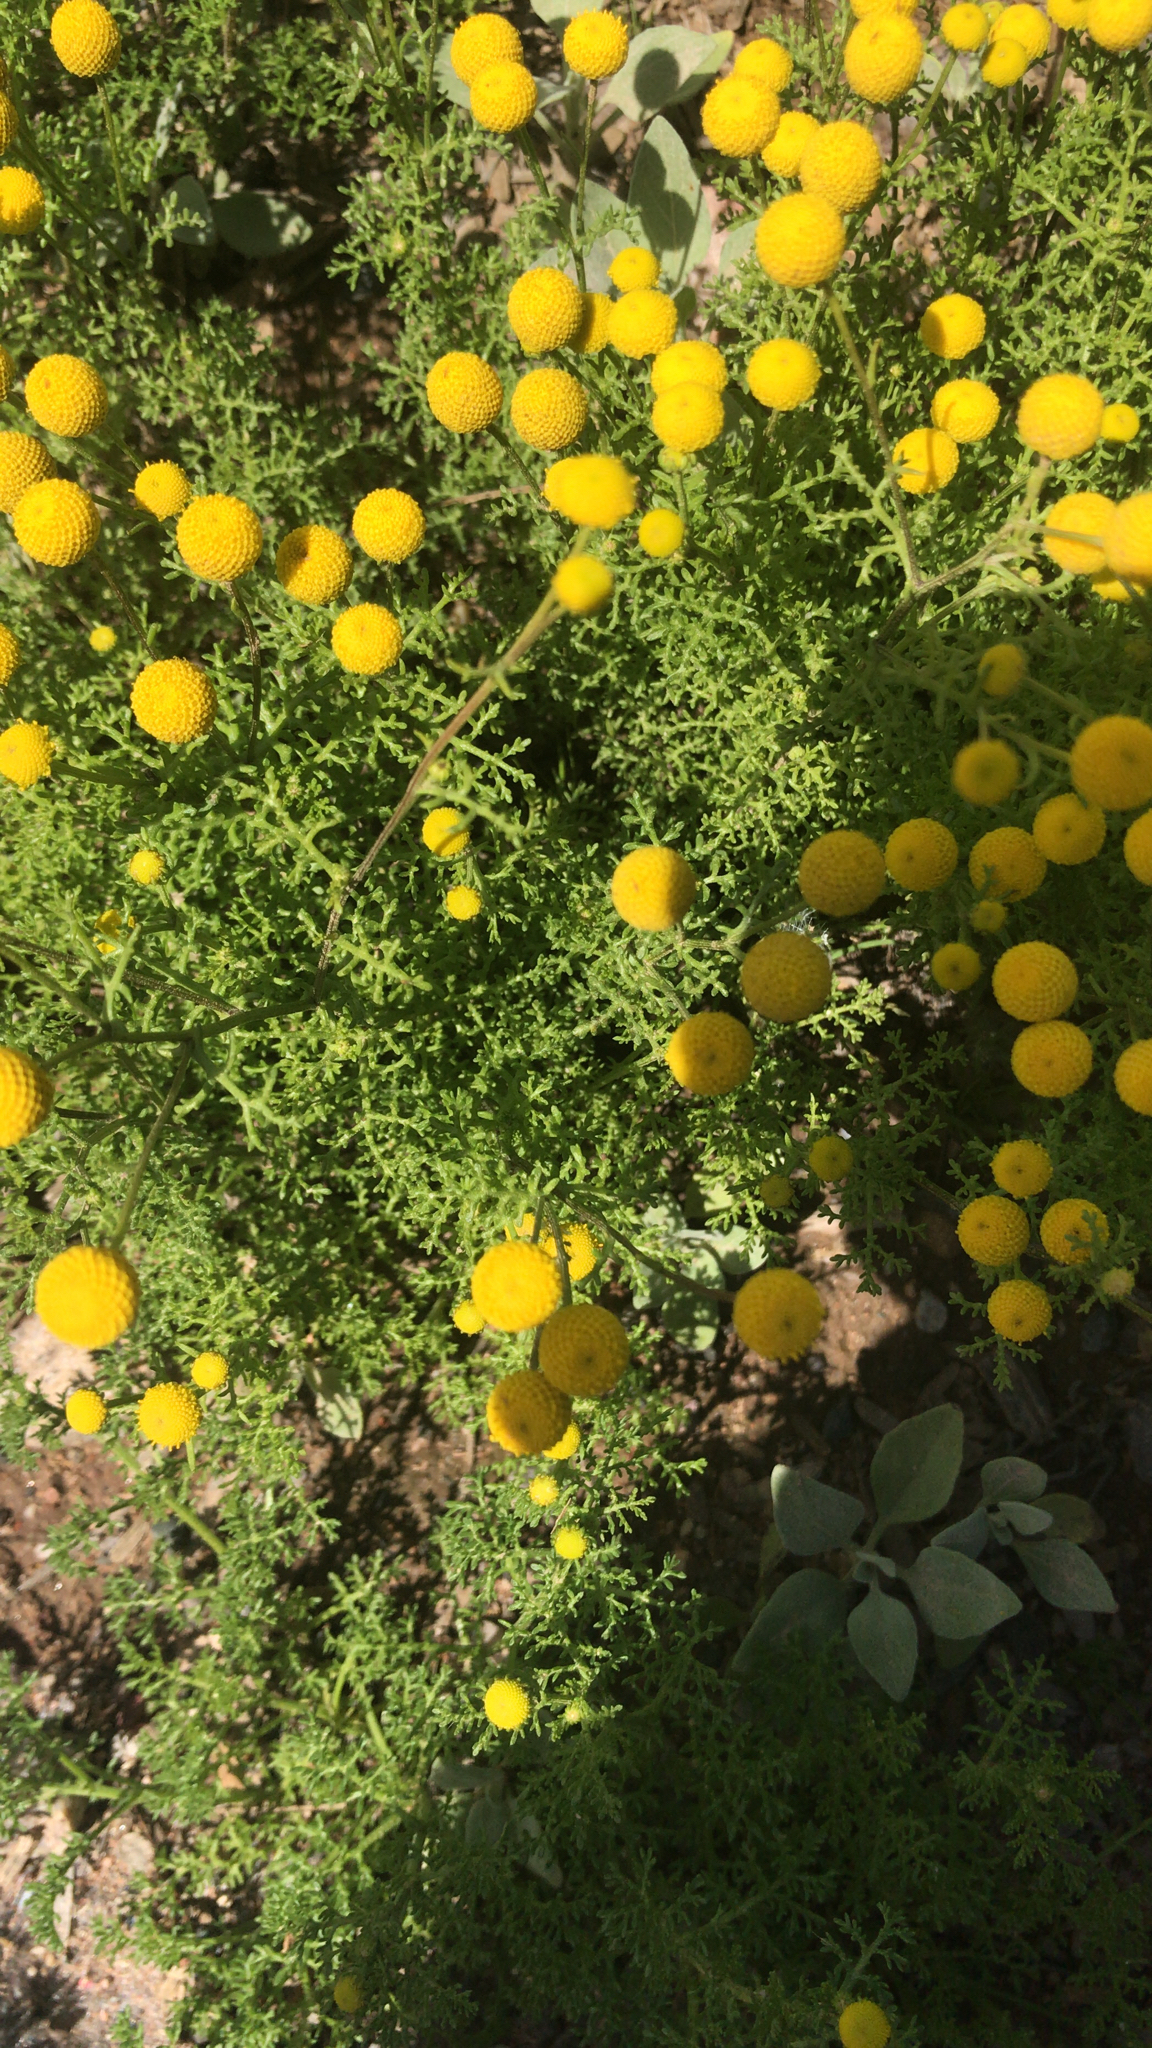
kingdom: Plantae
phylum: Tracheophyta
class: Magnoliopsida
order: Asterales
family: Asteraceae
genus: Oncosiphon
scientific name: Oncosiphon pilulifer
